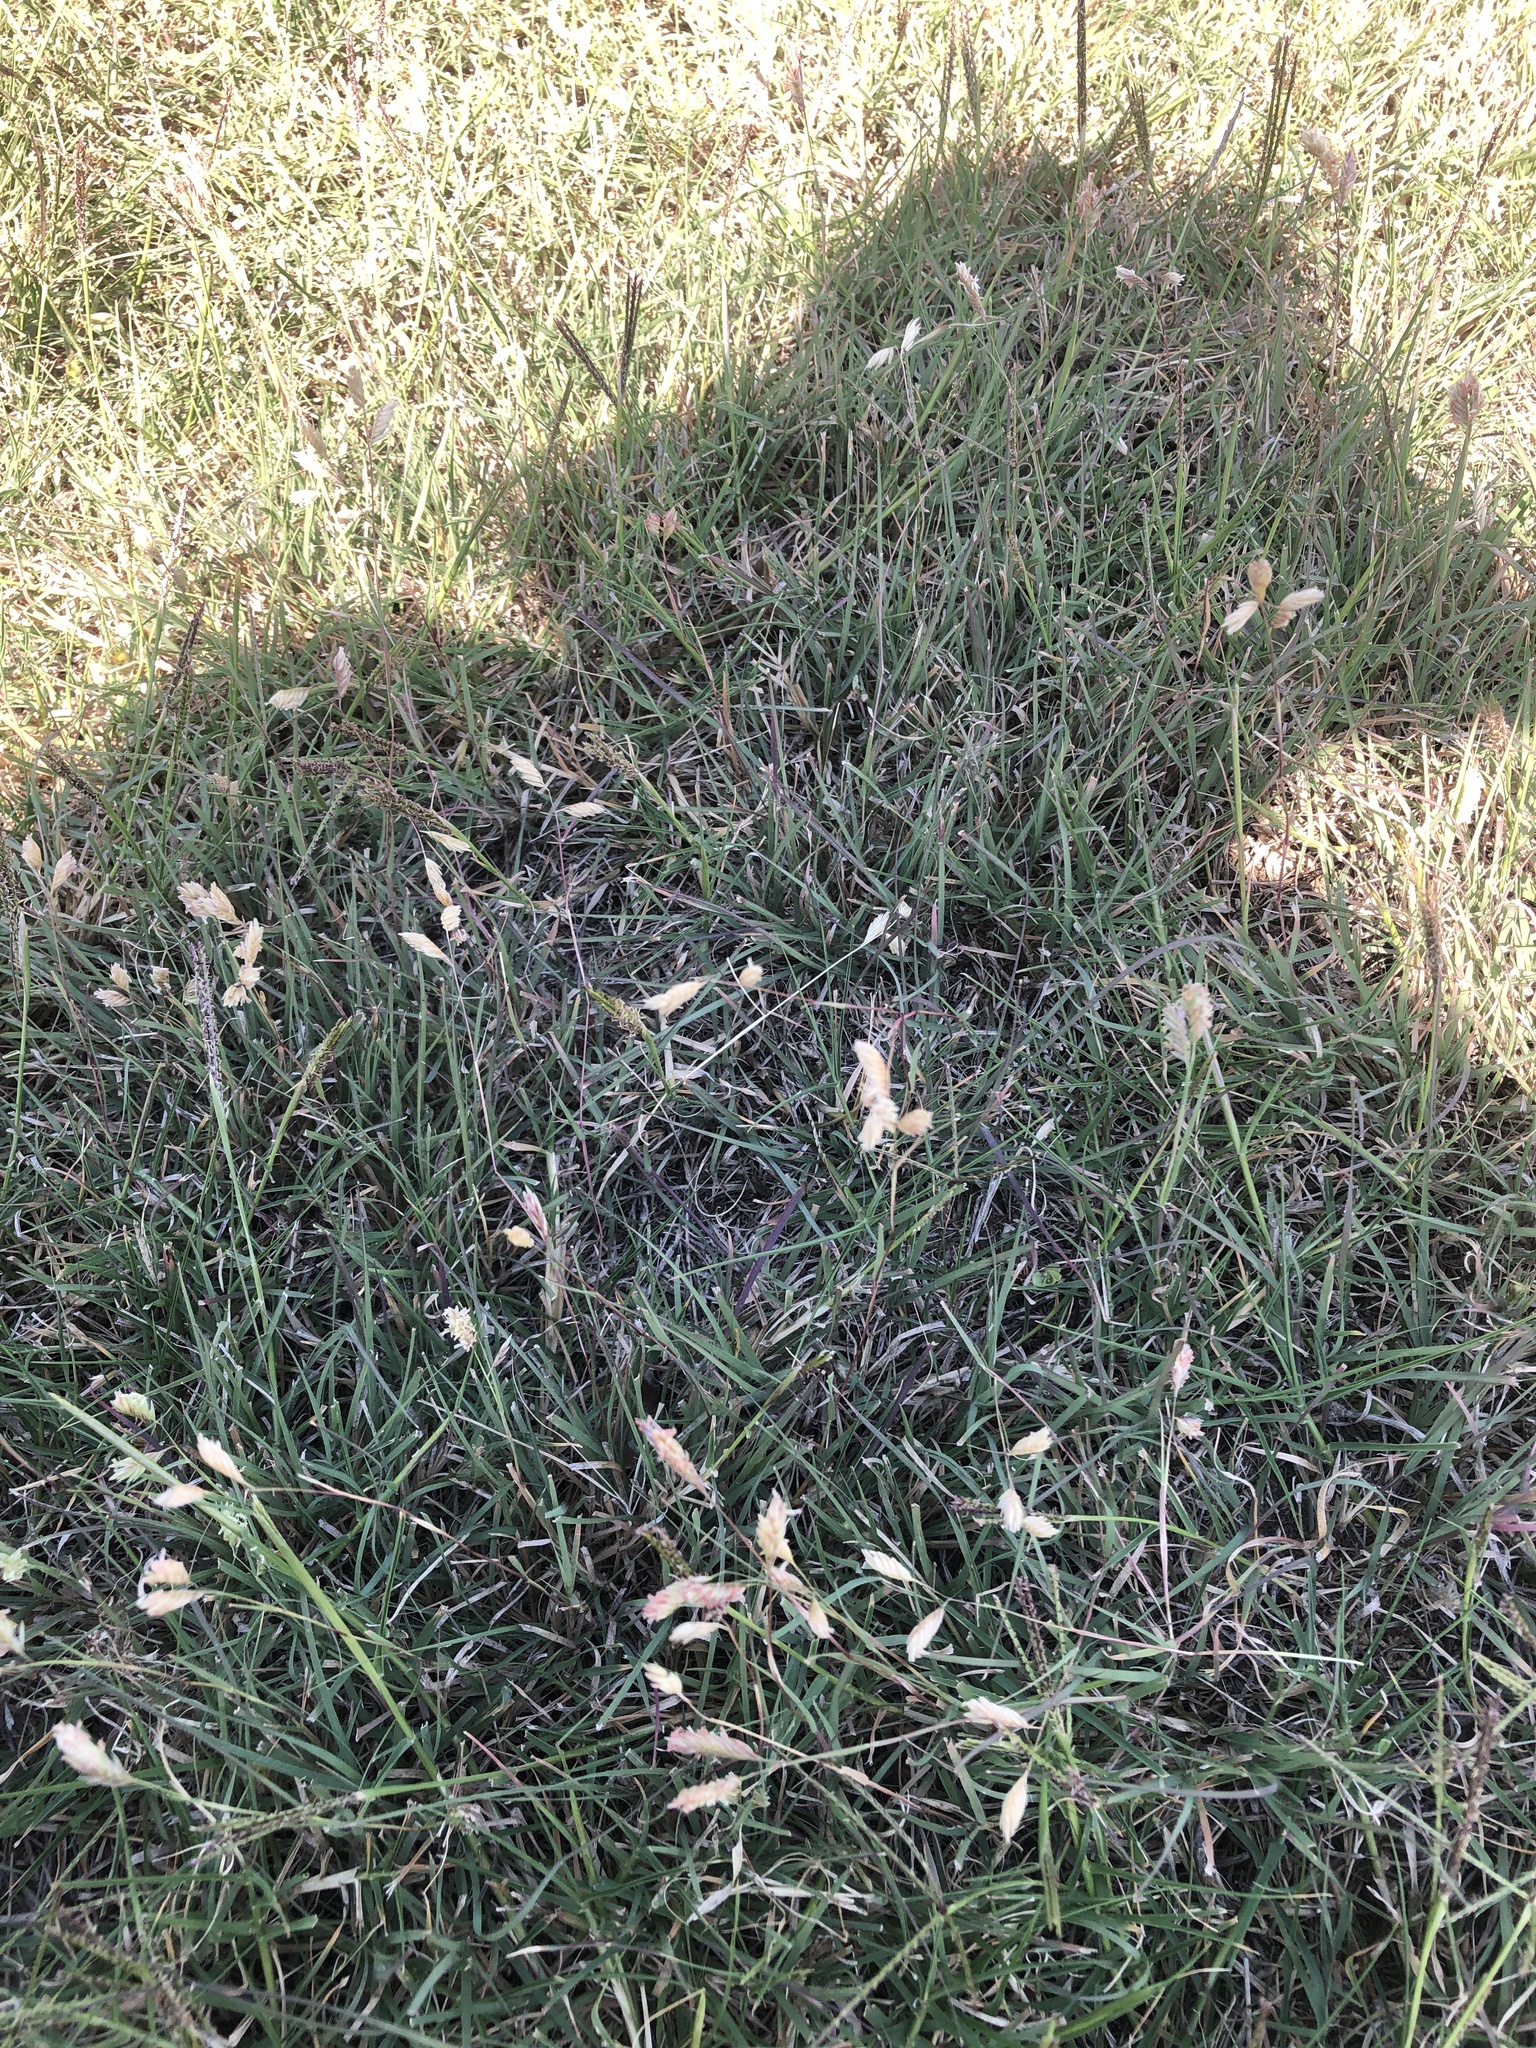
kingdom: Plantae
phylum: Tracheophyta
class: Liliopsida
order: Poales
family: Poaceae
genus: Bouteloua
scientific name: Bouteloua dactyloides
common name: Buffalo grass
